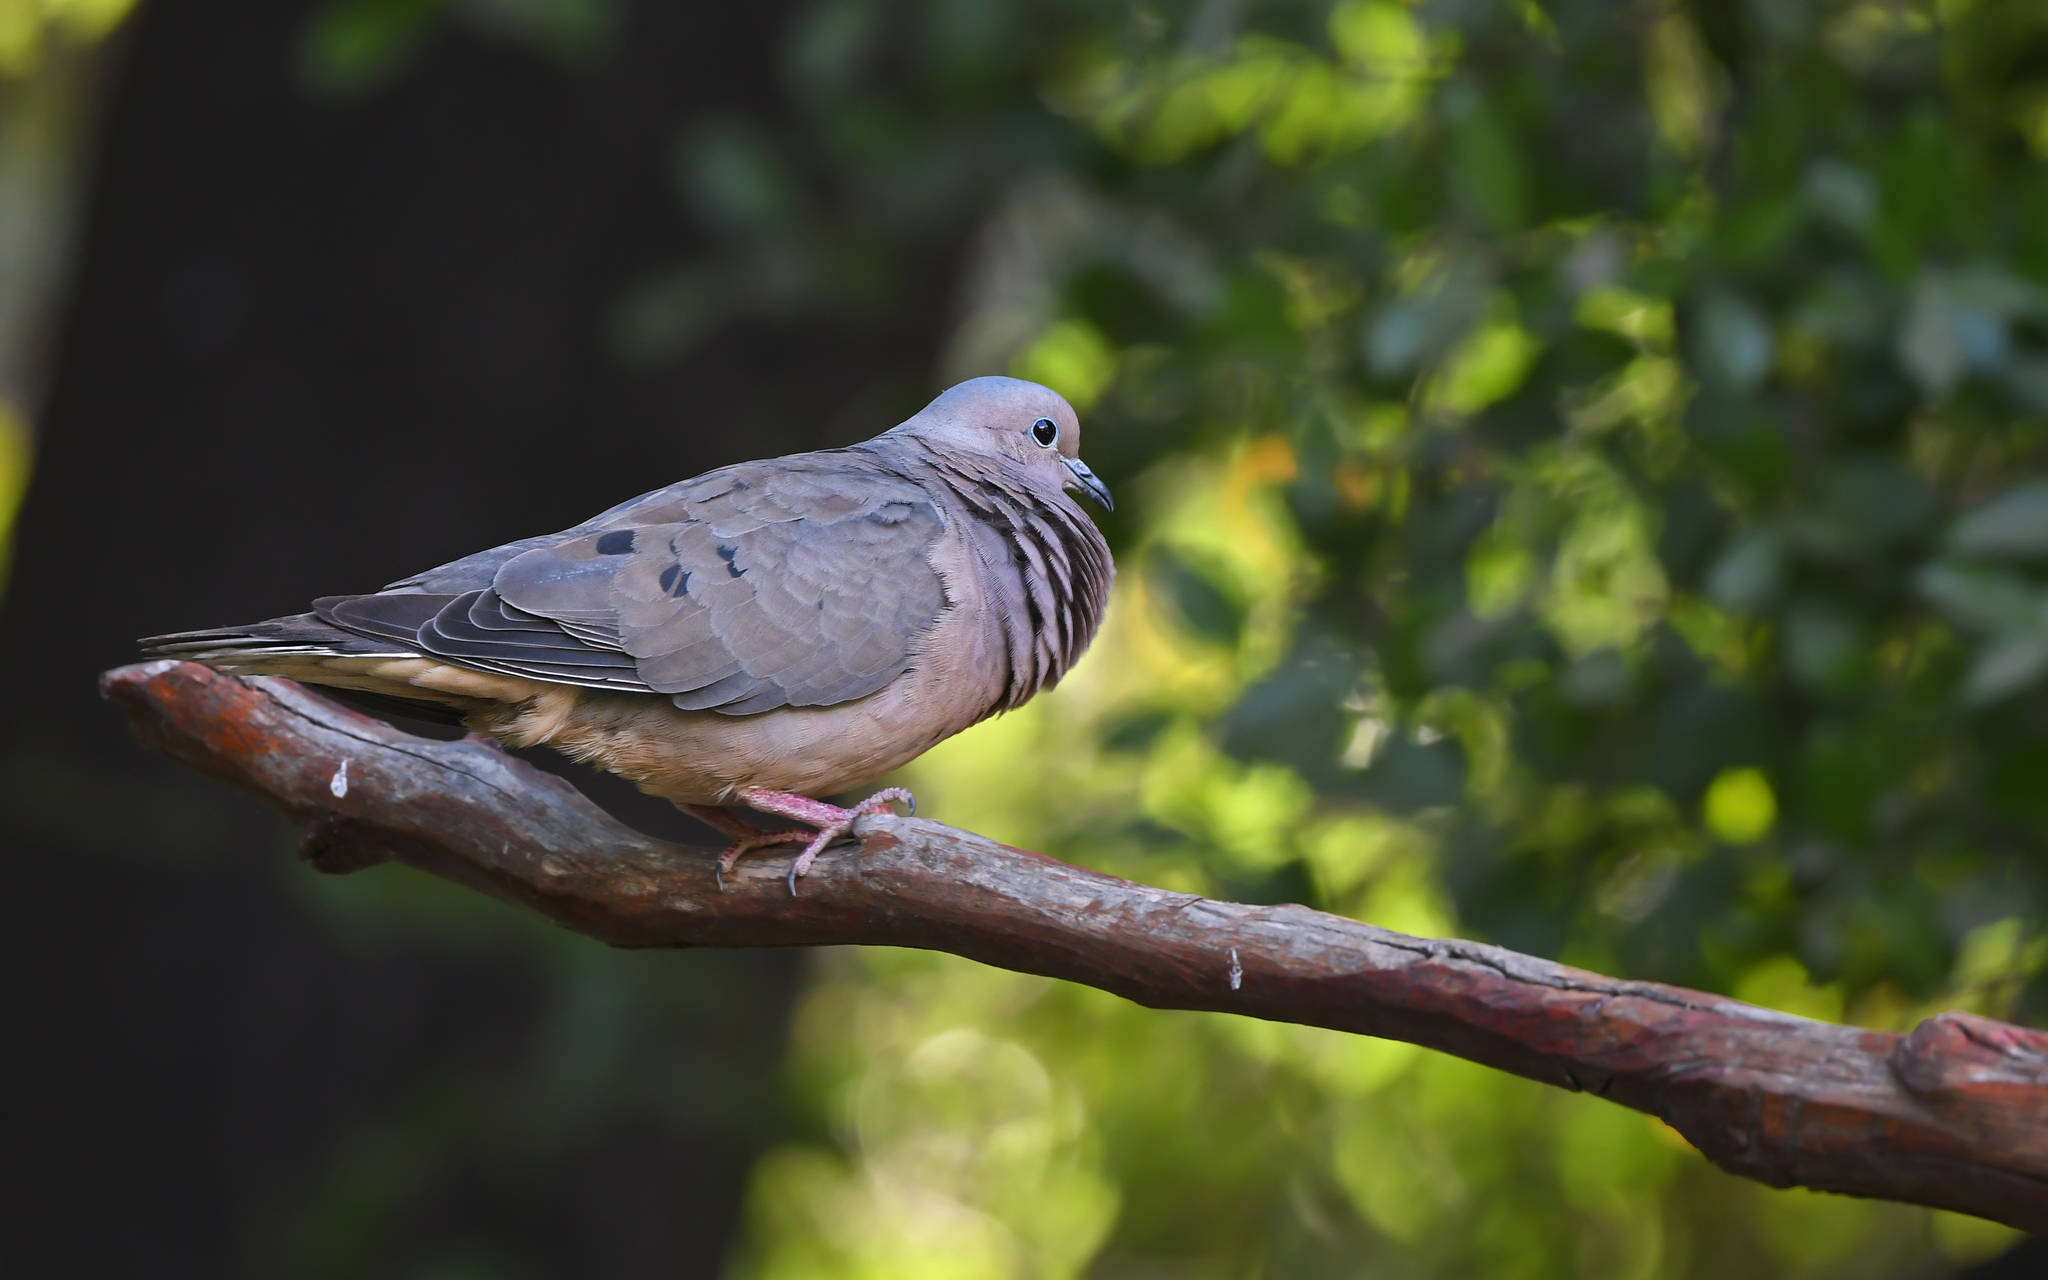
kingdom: Animalia
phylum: Chordata
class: Aves
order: Columbiformes
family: Columbidae
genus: Zenaida
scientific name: Zenaida auriculata
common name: Eared dove
